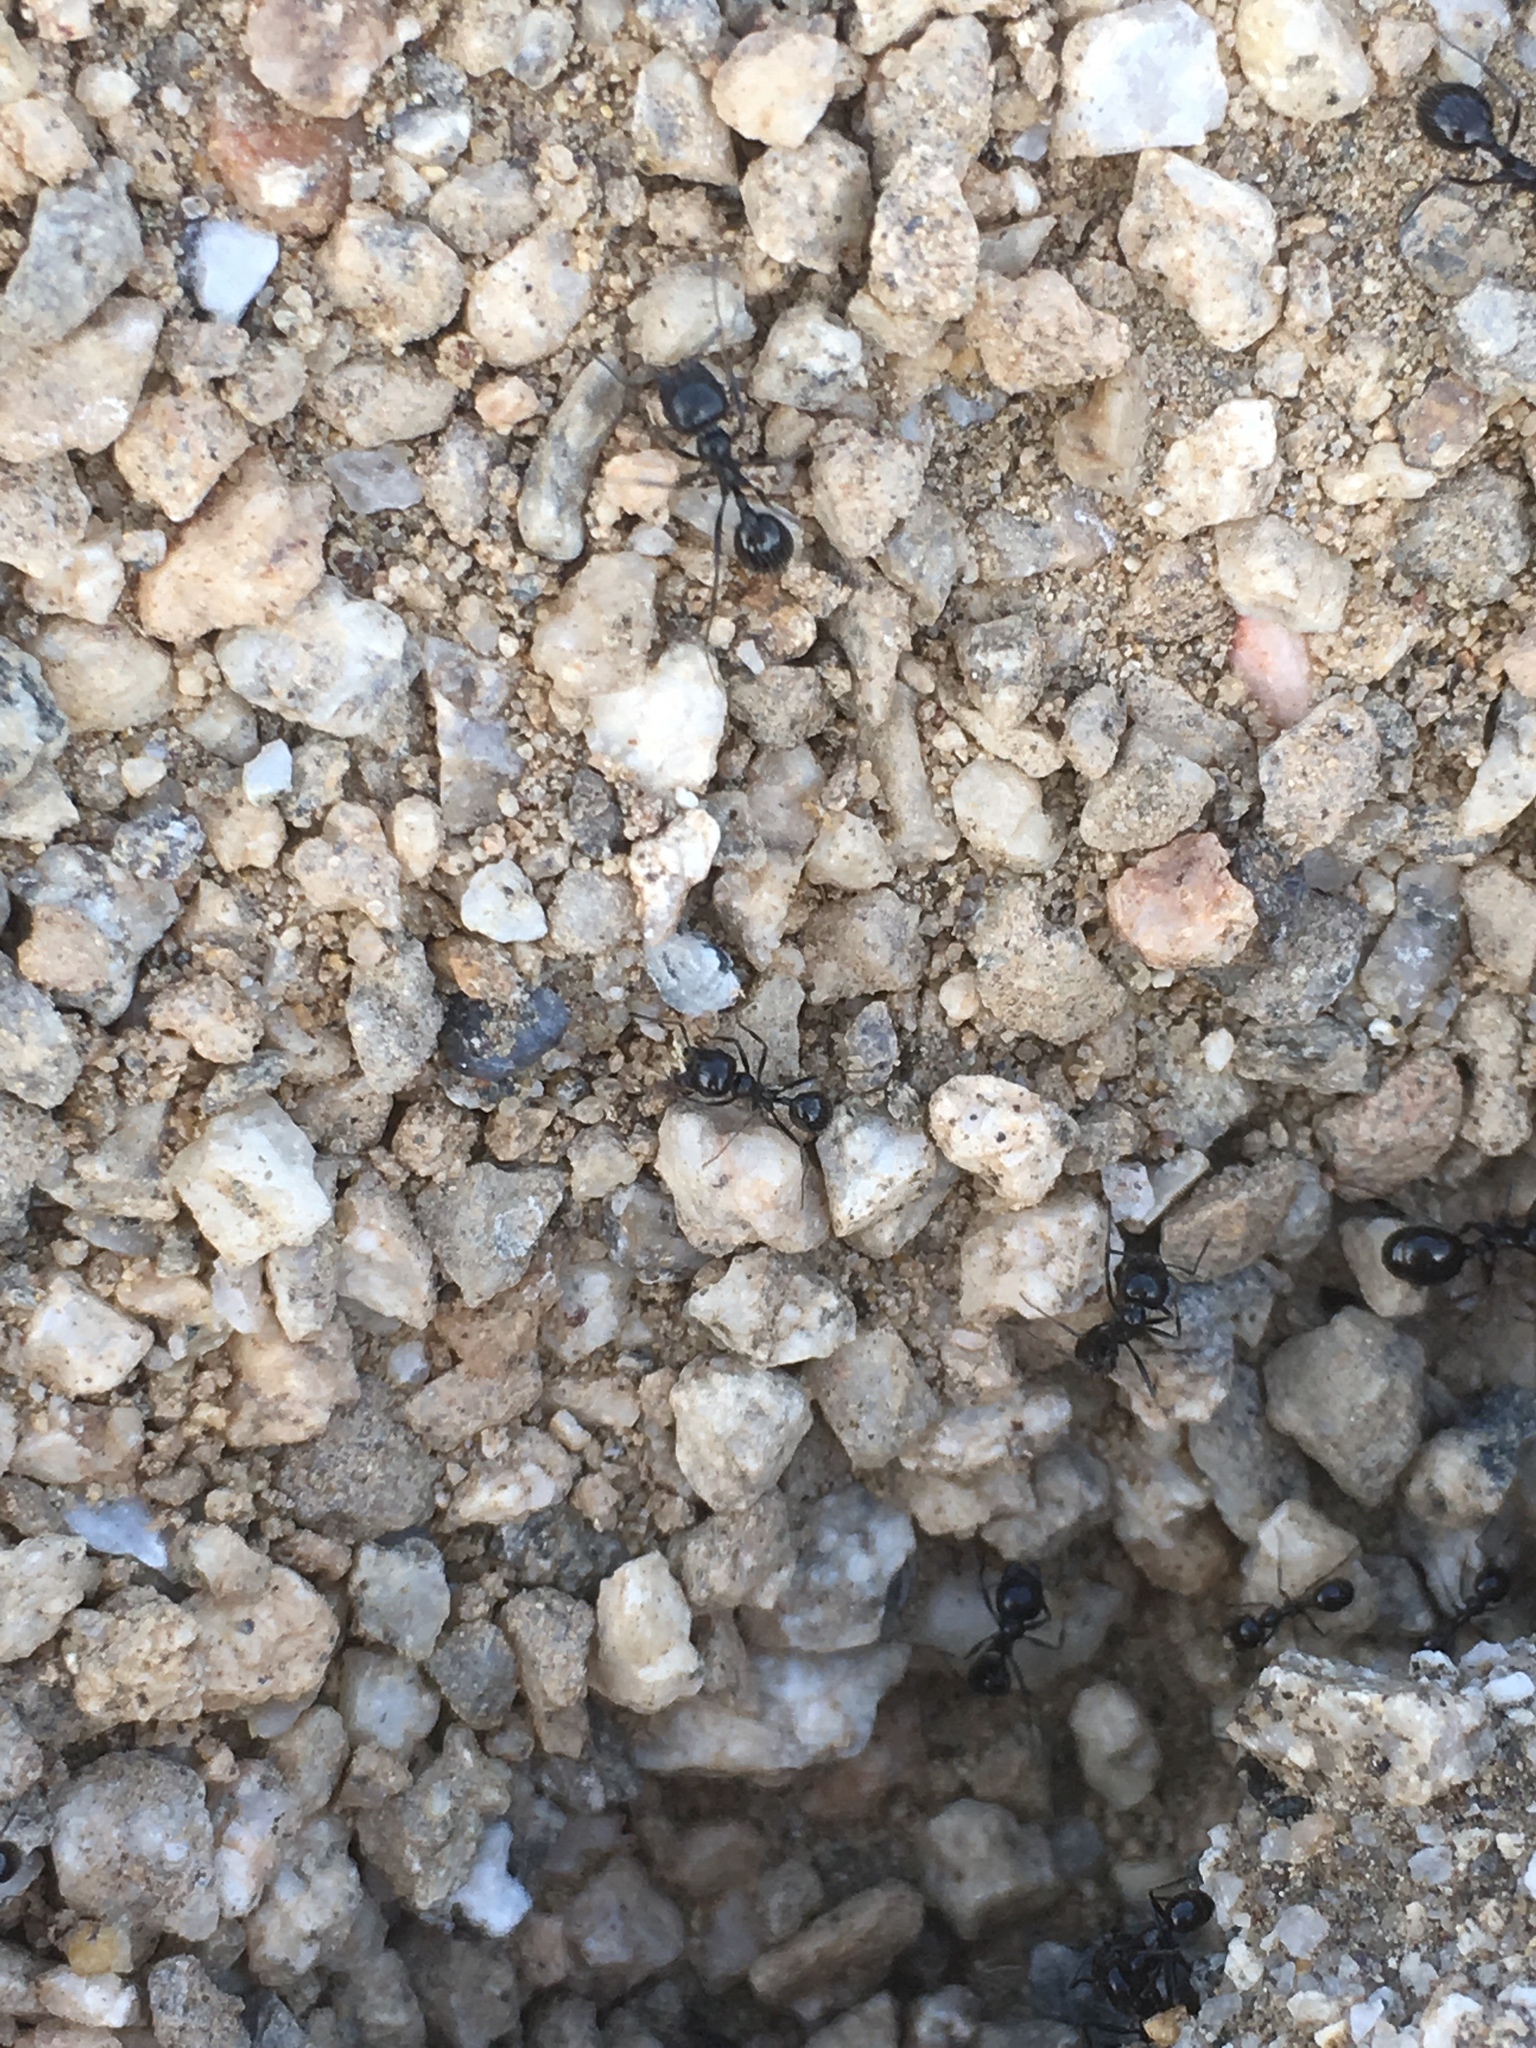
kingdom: Animalia
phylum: Arthropoda
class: Insecta
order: Hymenoptera
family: Formicidae
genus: Messor
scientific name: Messor pergandei
